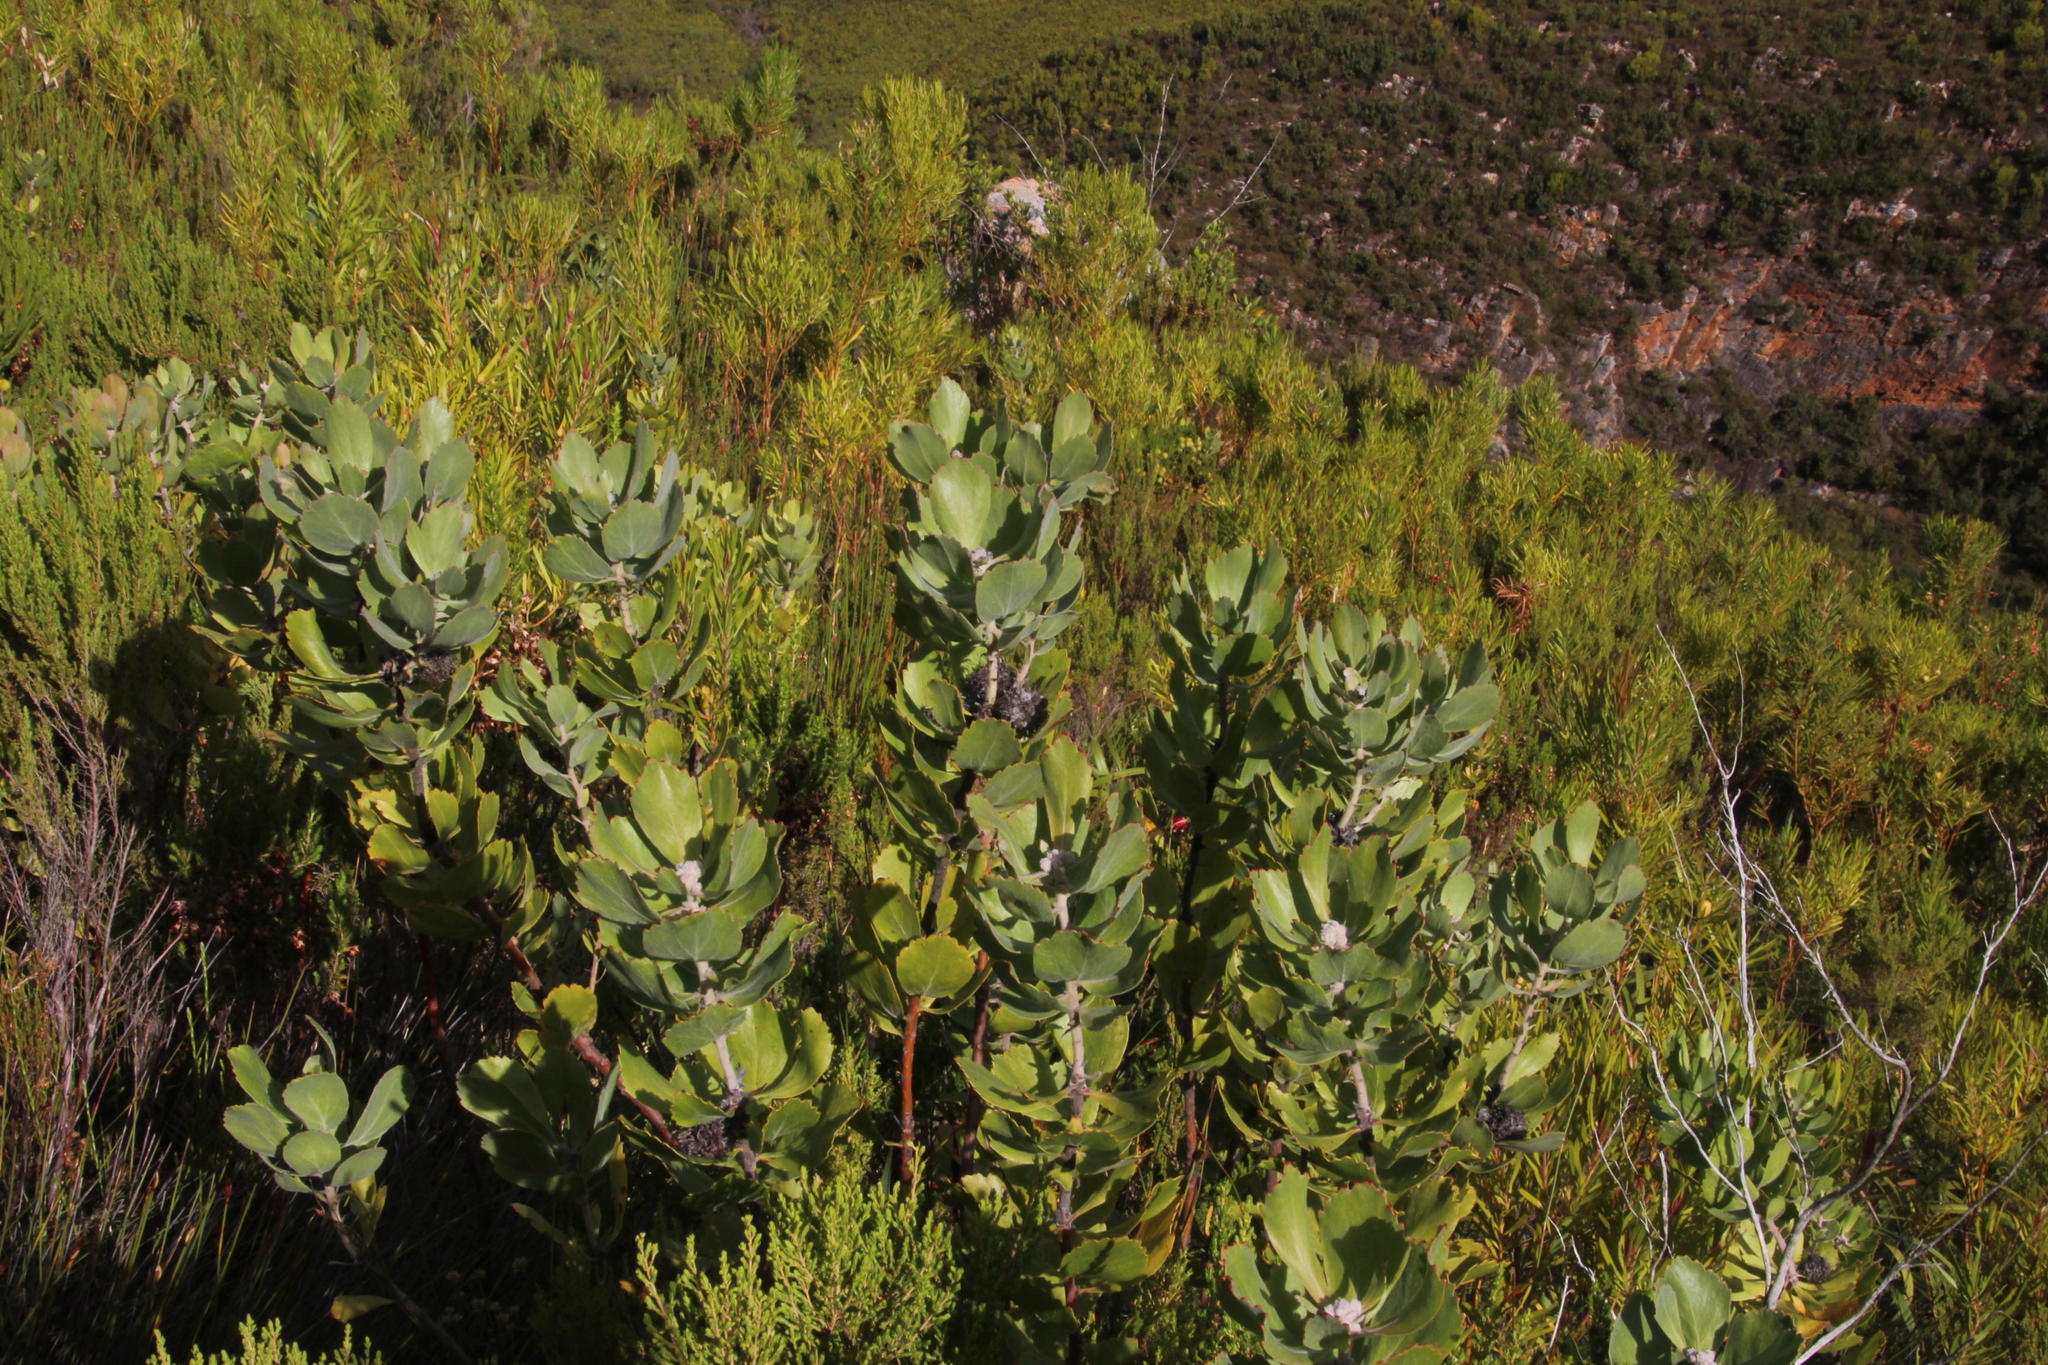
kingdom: Plantae
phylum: Tracheophyta
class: Magnoliopsida
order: Proteales
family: Proteaceae
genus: Leucospermum
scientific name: Leucospermum winteri
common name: Riversdale pincushion
